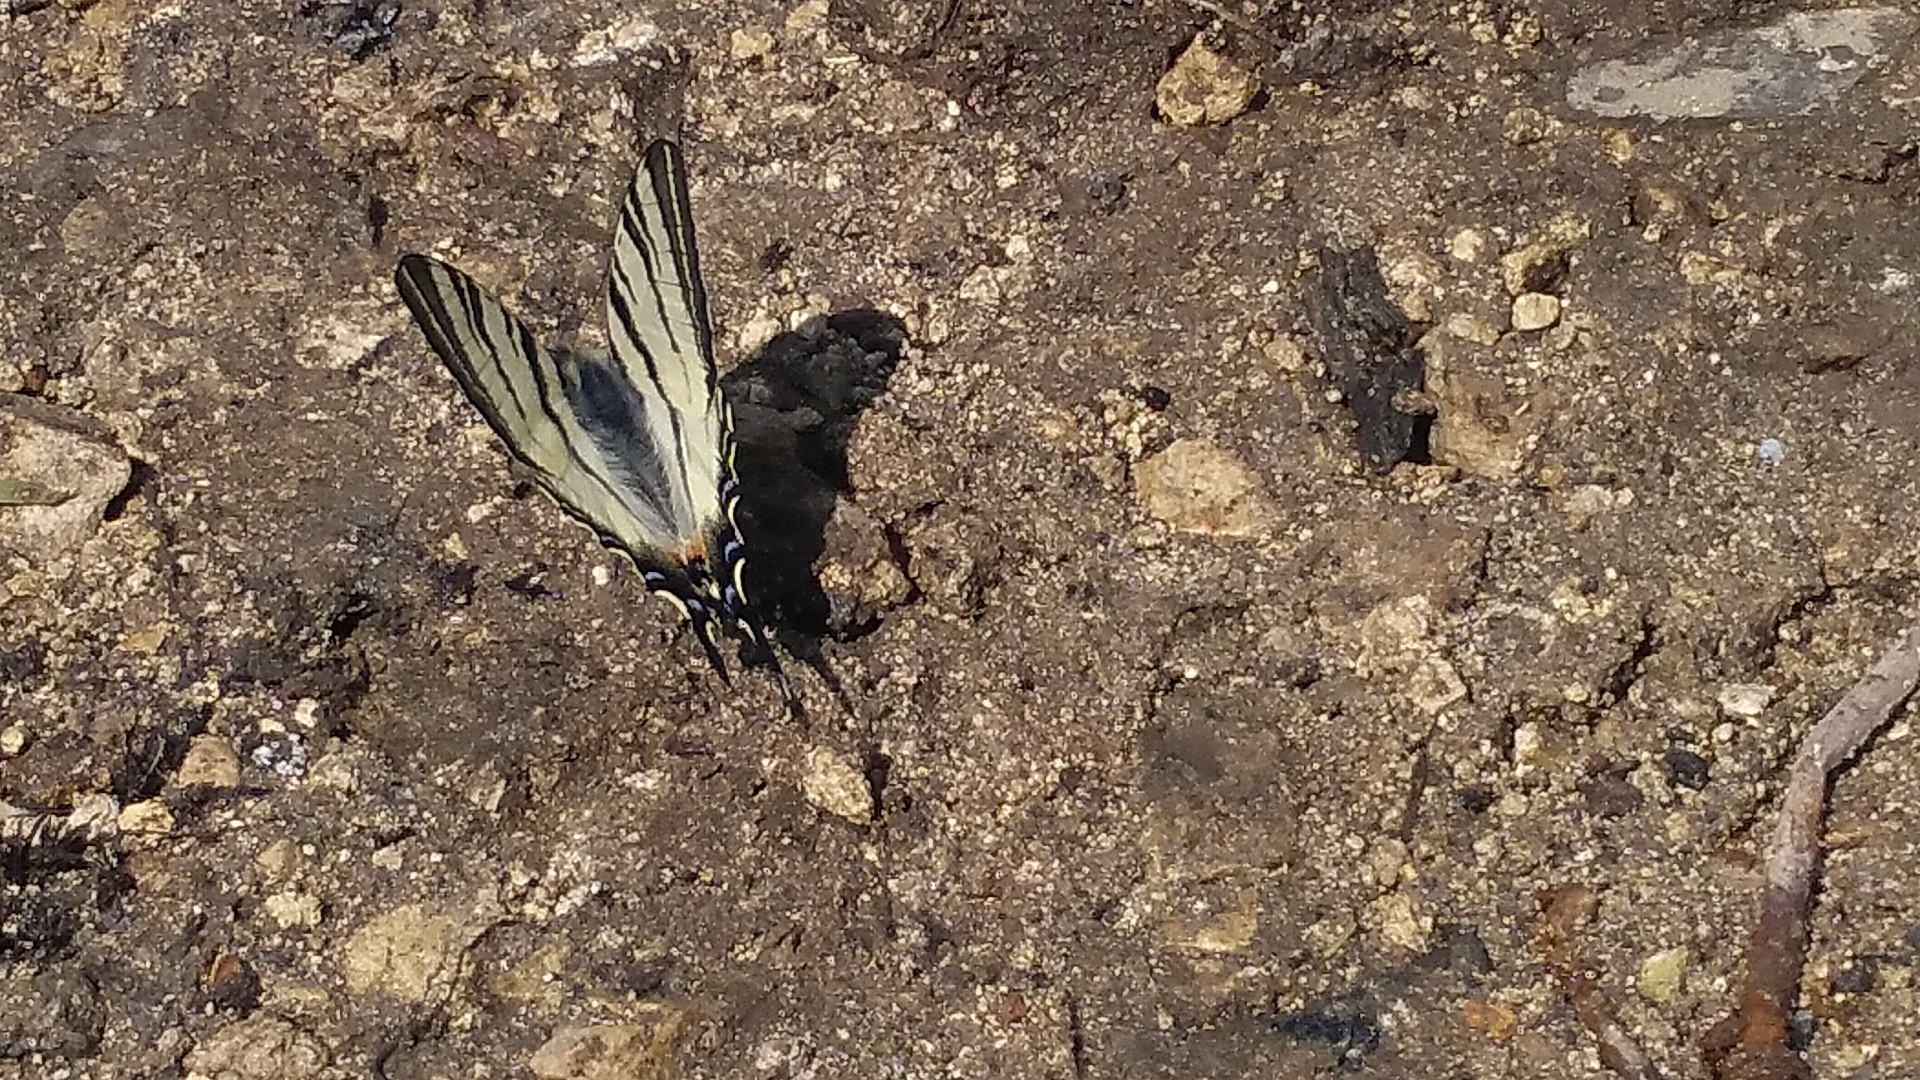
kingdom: Animalia
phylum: Arthropoda
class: Insecta
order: Lepidoptera
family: Papilionidae
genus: Iphiclides
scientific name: Iphiclides podalirius
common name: Scarce swallowtail
